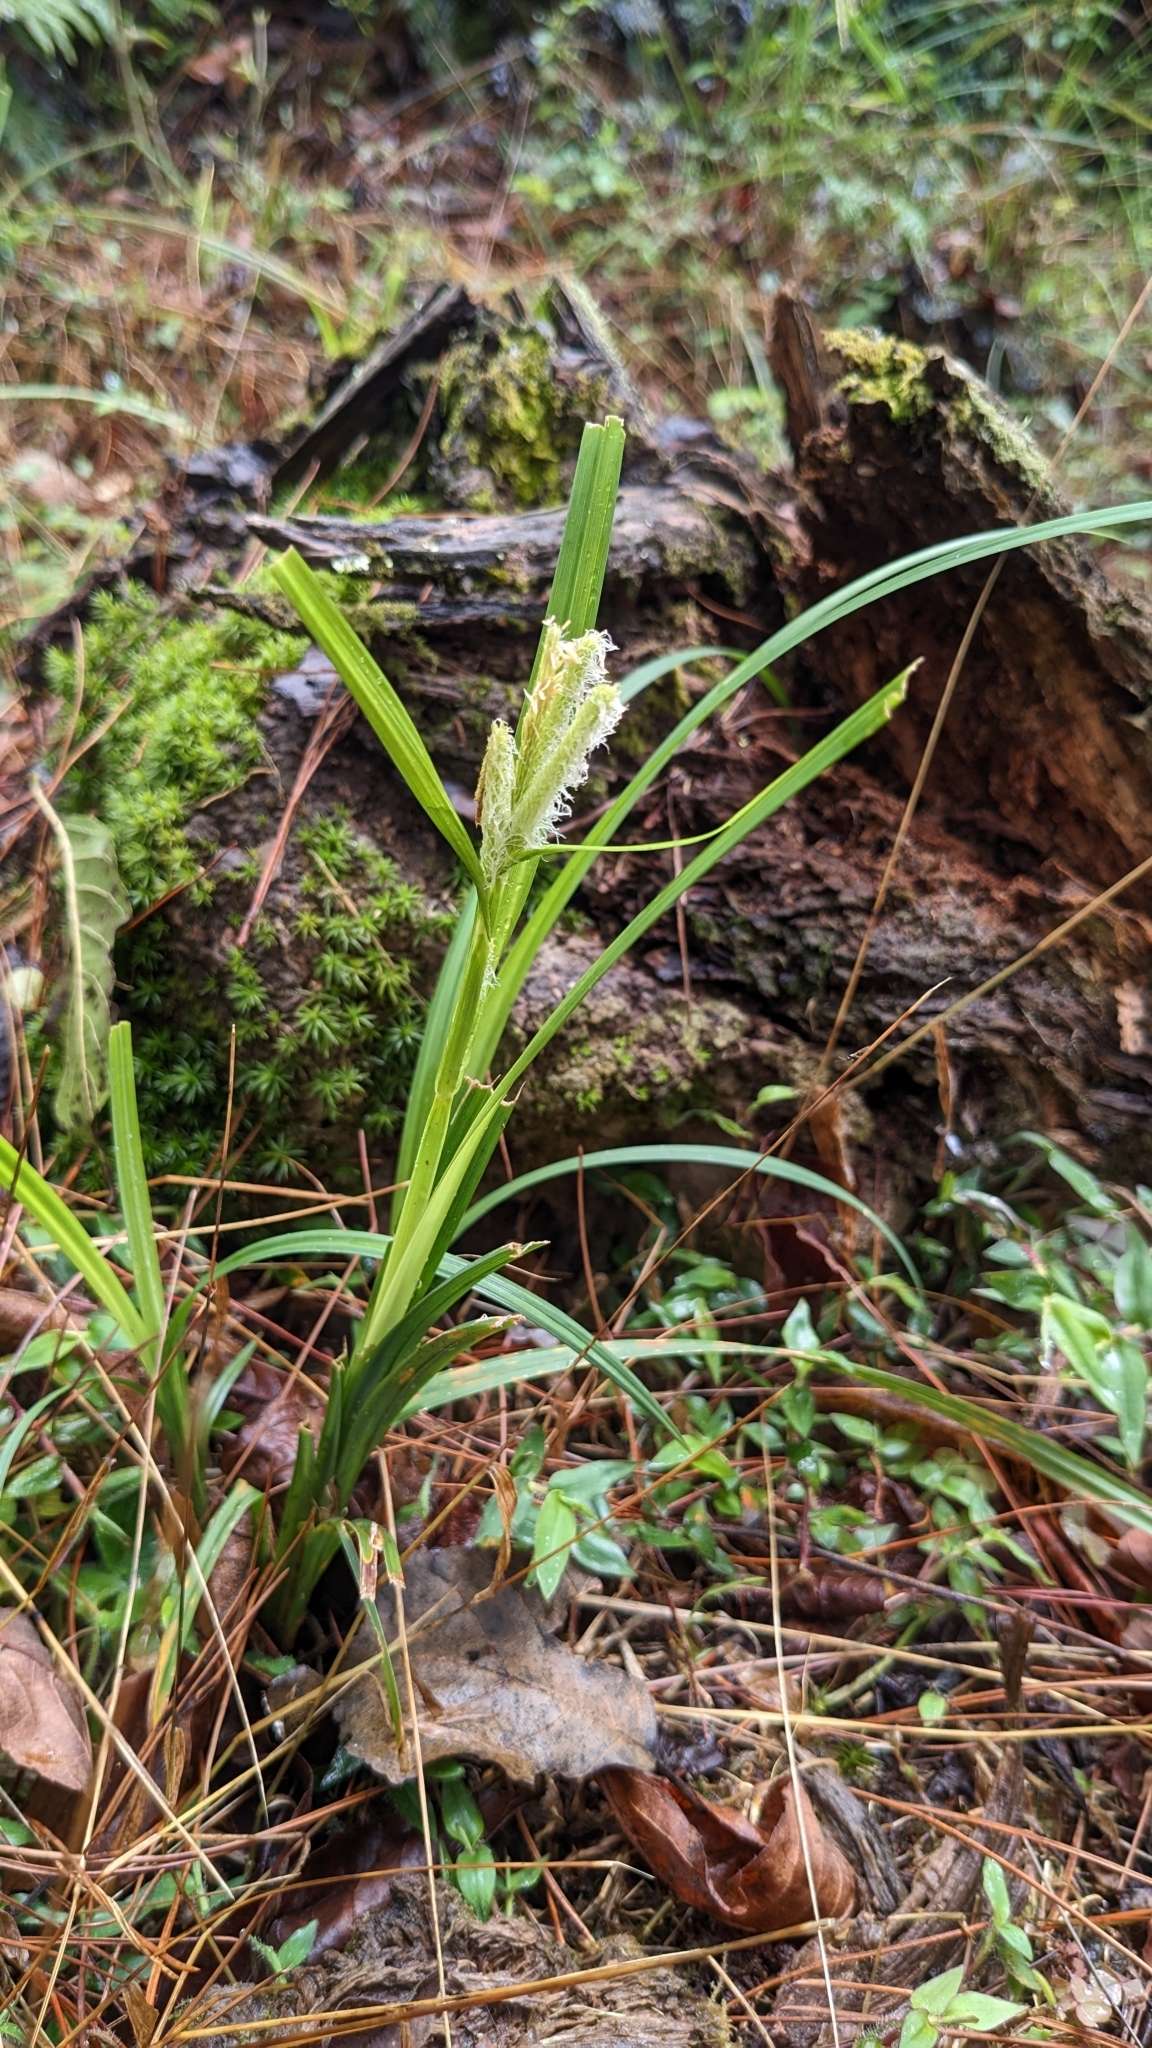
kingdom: Plantae
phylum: Tracheophyta
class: Liliopsida
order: Poales
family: Cyperaceae
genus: Carex
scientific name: Carex doniana
